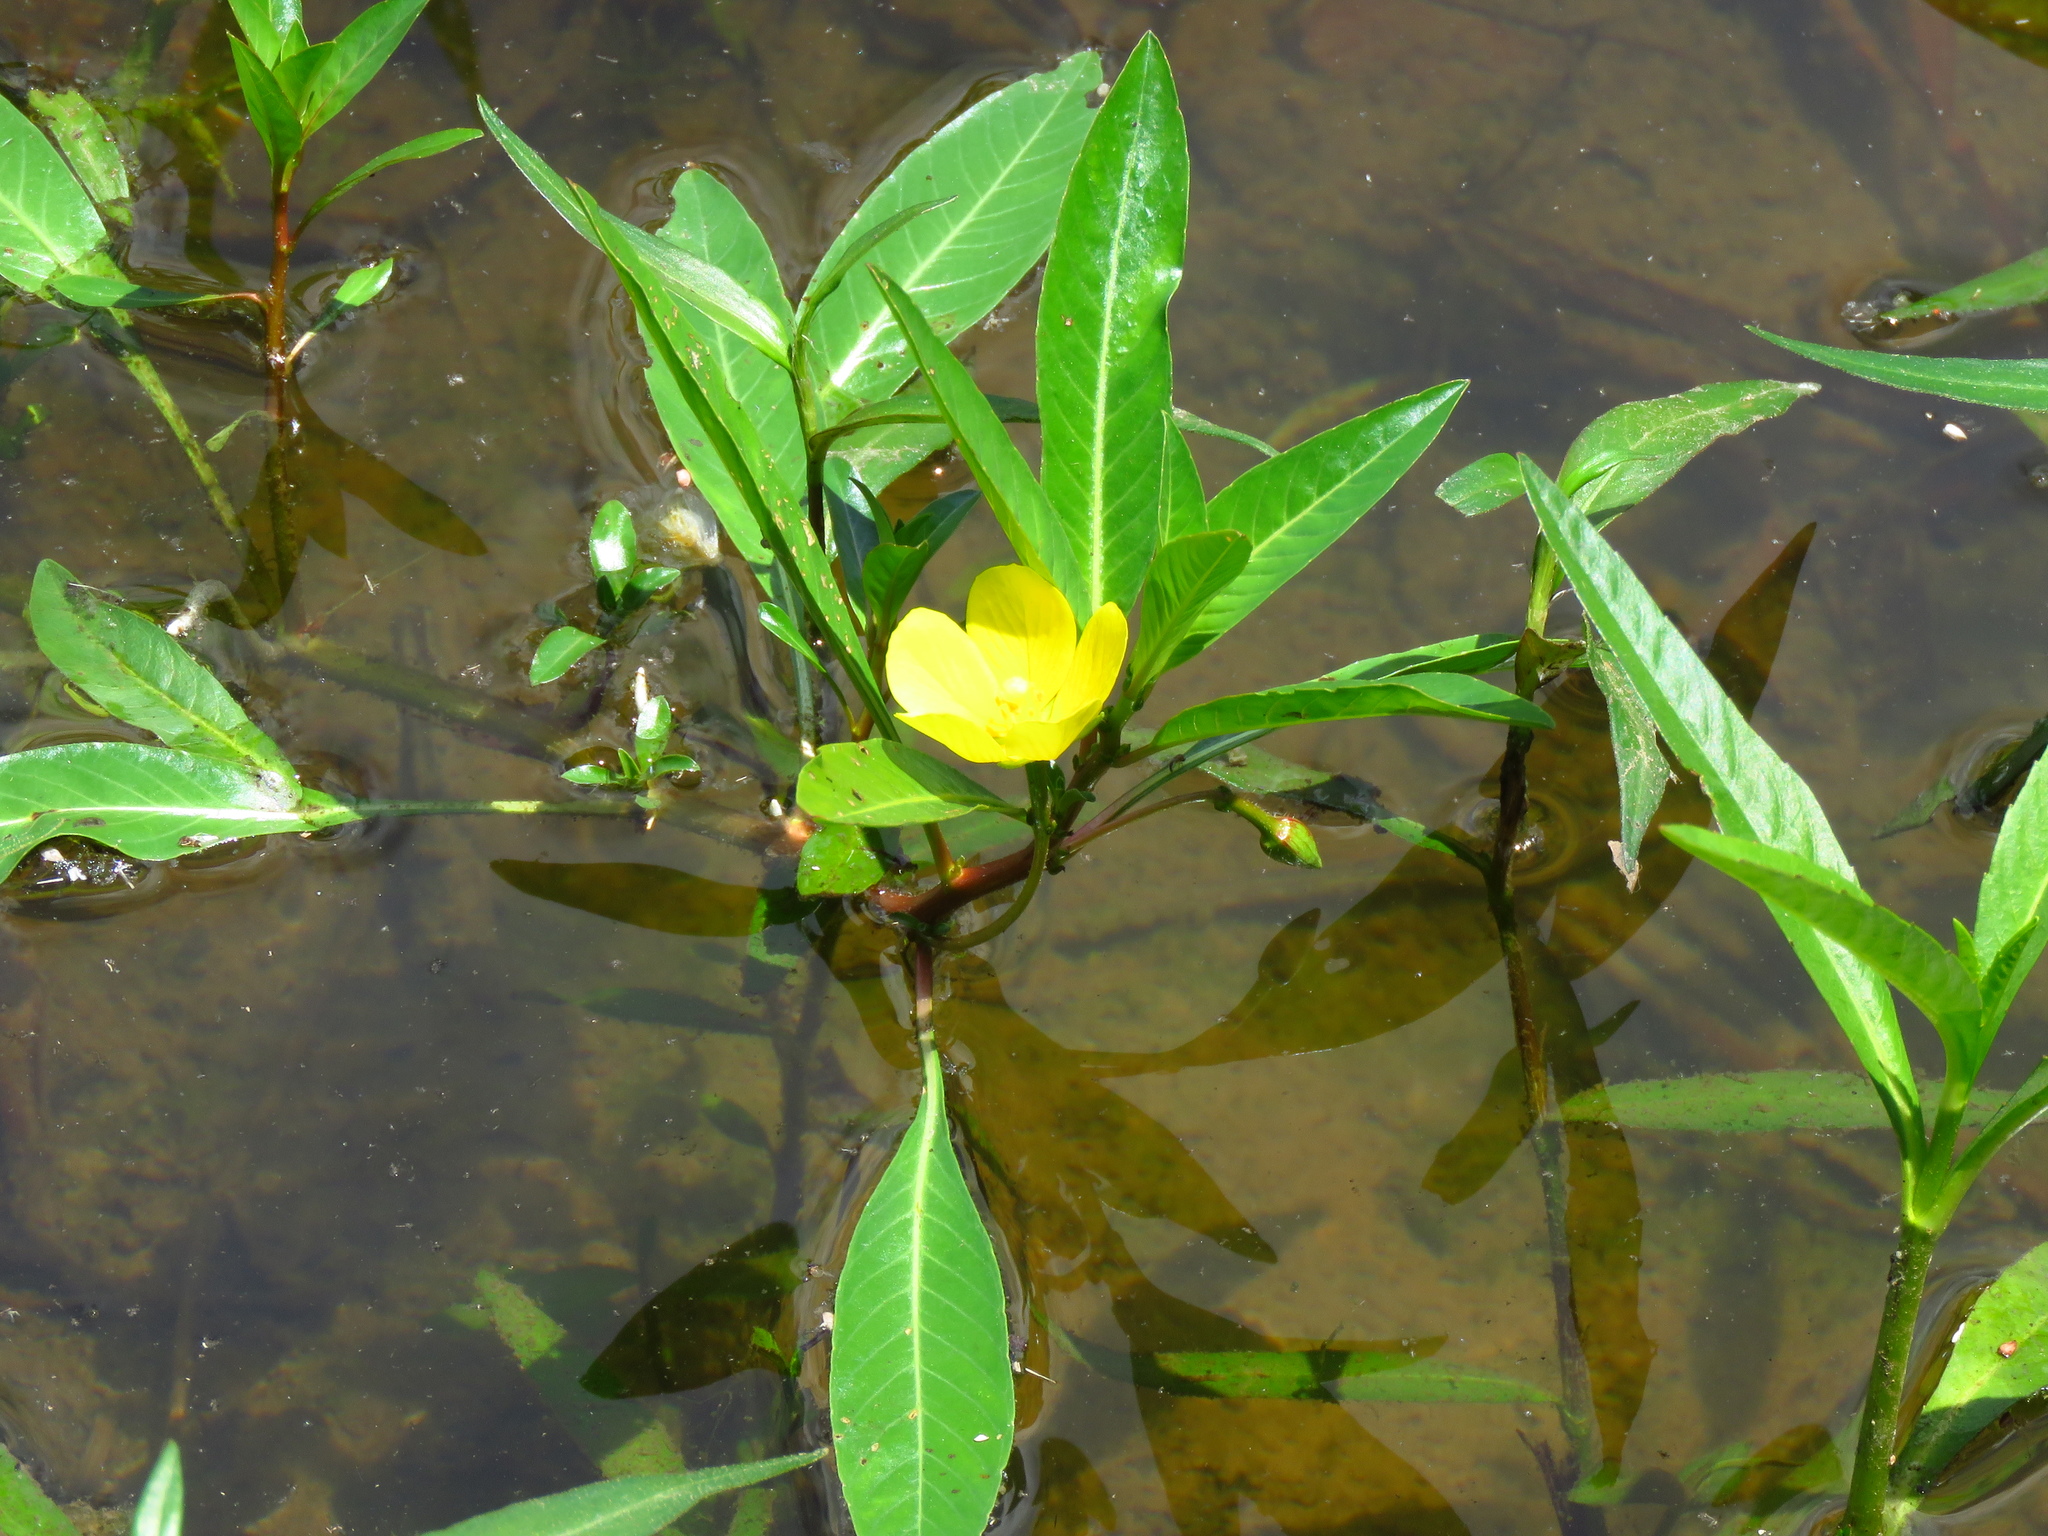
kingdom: Plantae
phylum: Tracheophyta
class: Magnoliopsida
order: Myrtales
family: Onagraceae
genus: Ludwigia
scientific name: Ludwigia peploides
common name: Floating primrose-willow
